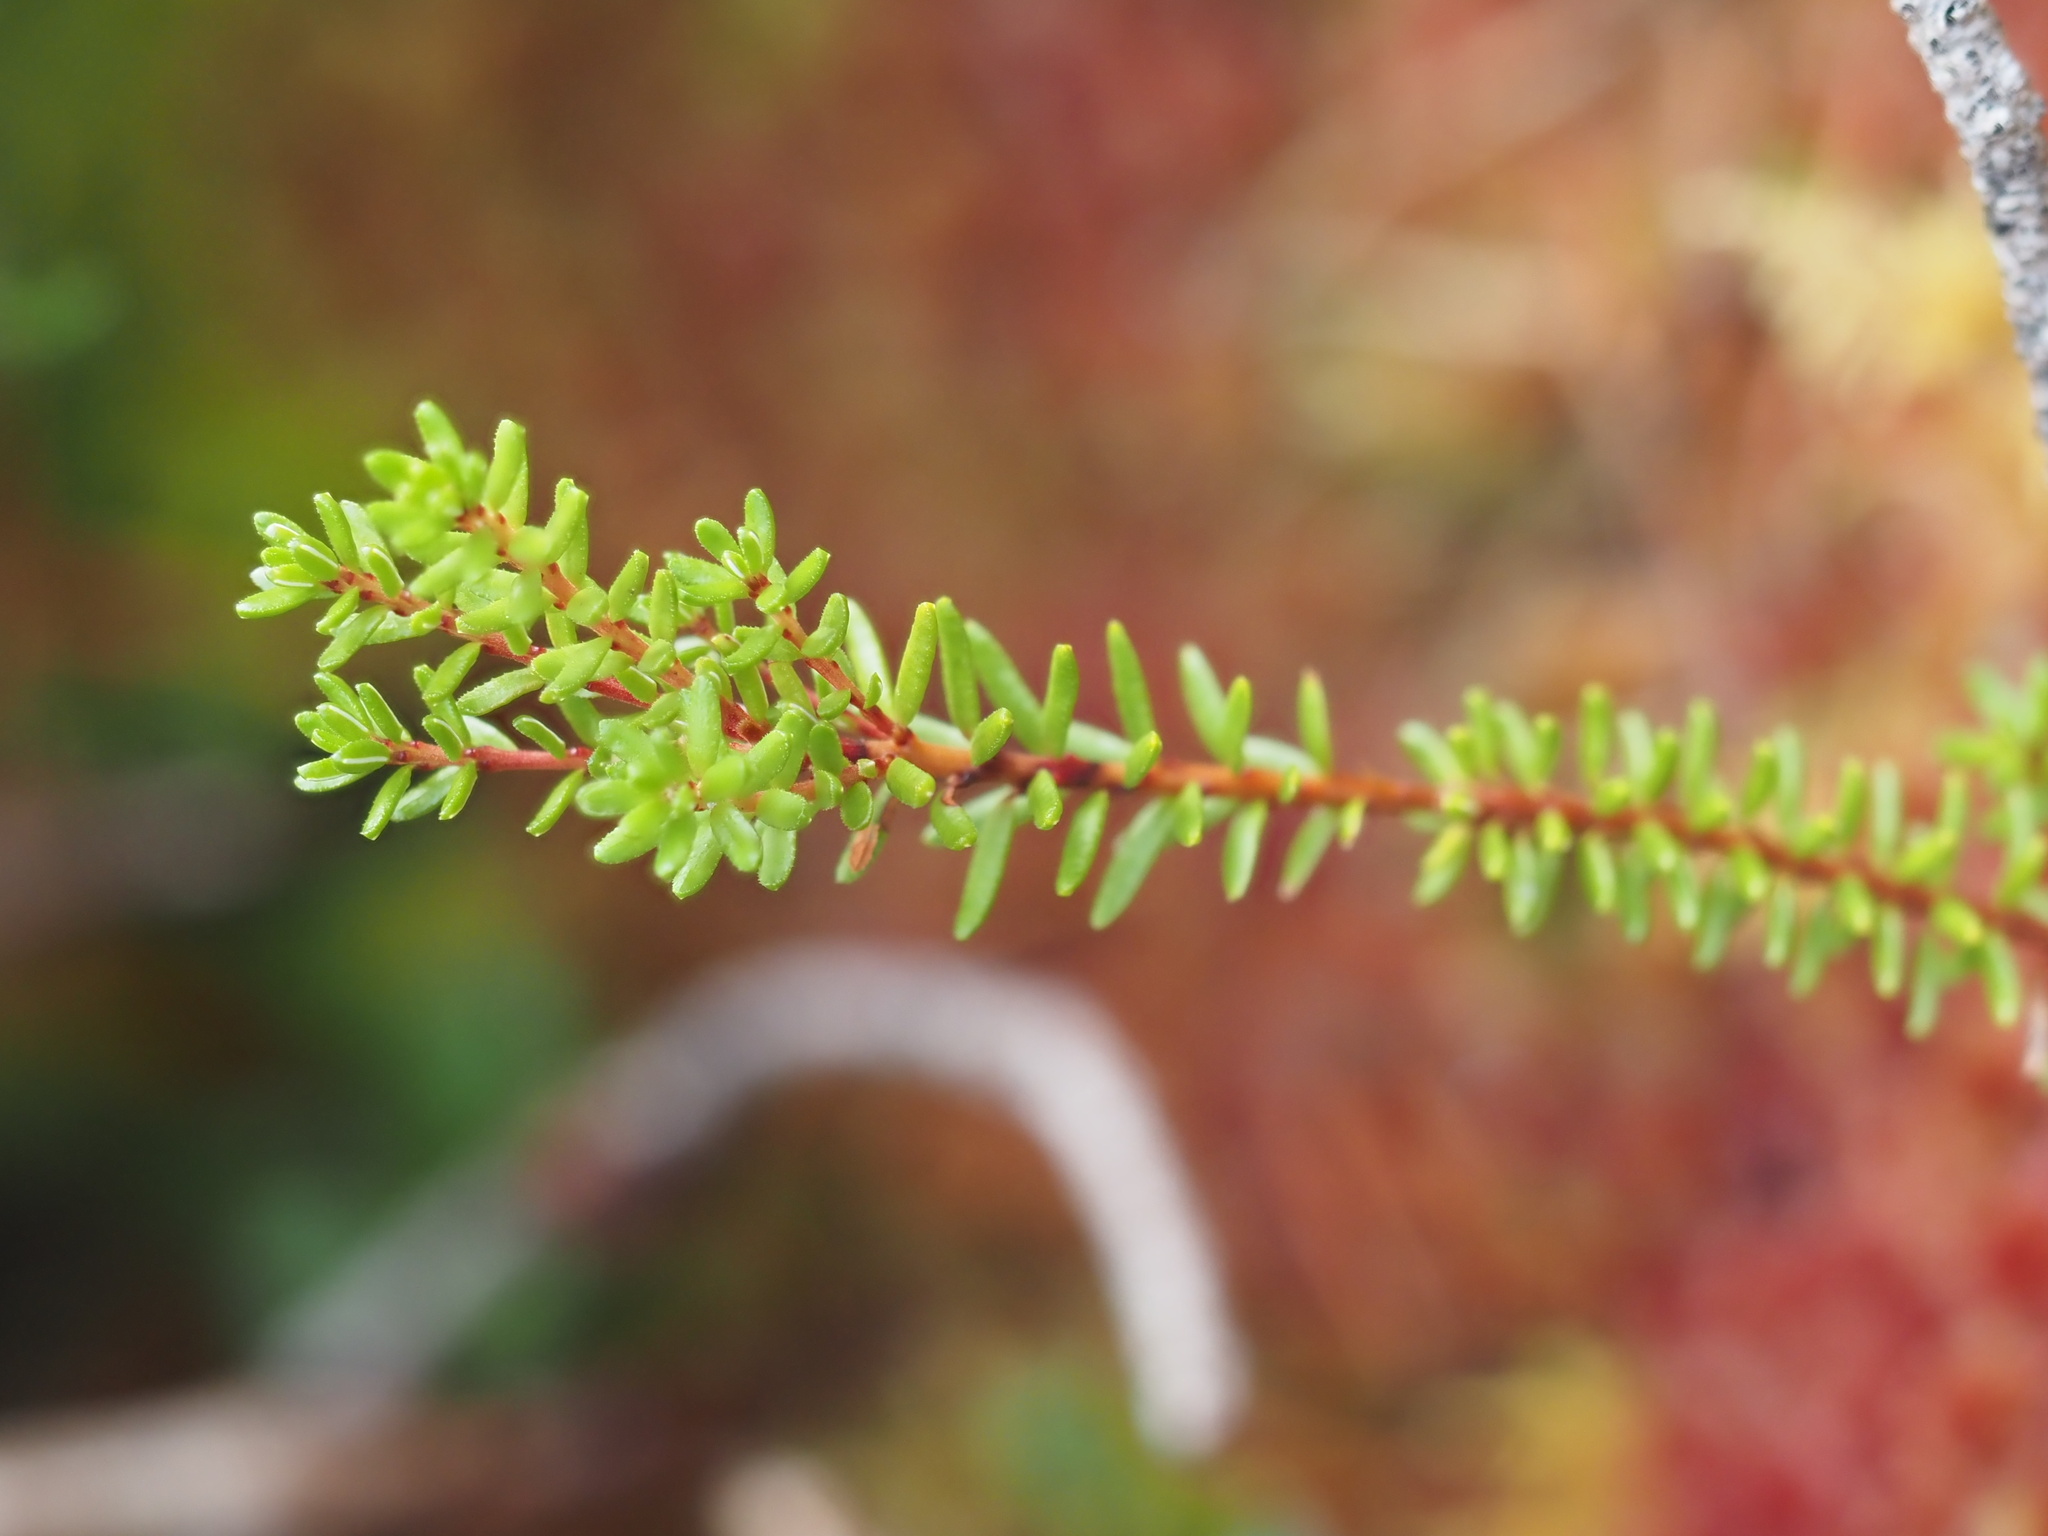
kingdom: Plantae
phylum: Tracheophyta
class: Magnoliopsida
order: Ericales
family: Ericaceae
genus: Empetrum
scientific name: Empetrum nigrum
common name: Black crowberry
